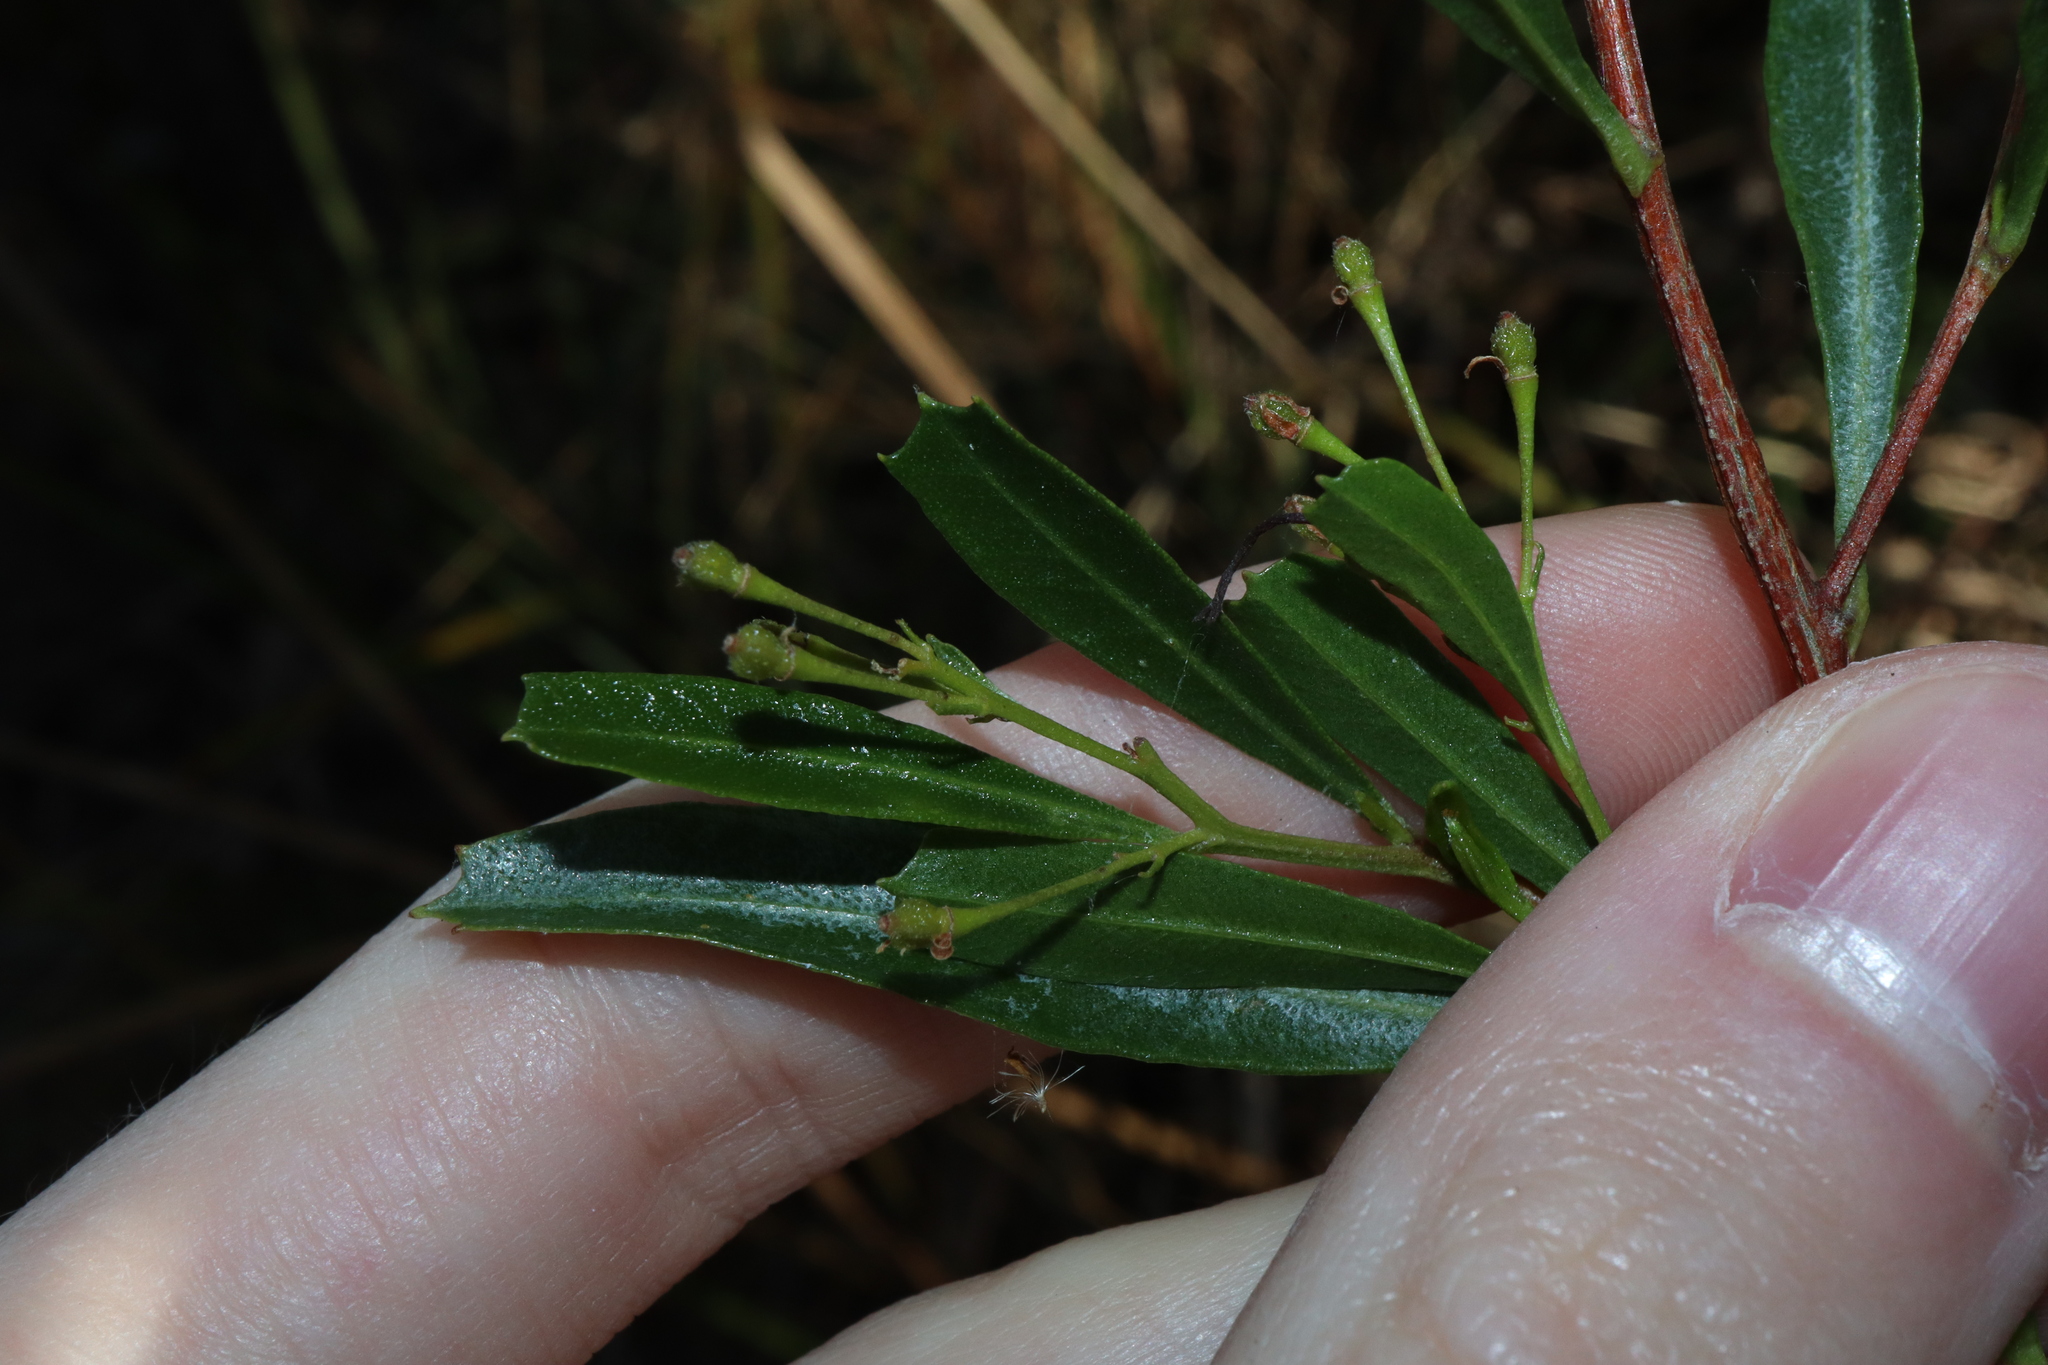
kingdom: Plantae
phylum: Tracheophyta
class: Magnoliopsida
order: Sapindales
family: Sapindaceae
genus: Dodonaea
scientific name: Dodonaea viscosa
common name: Hopbush
